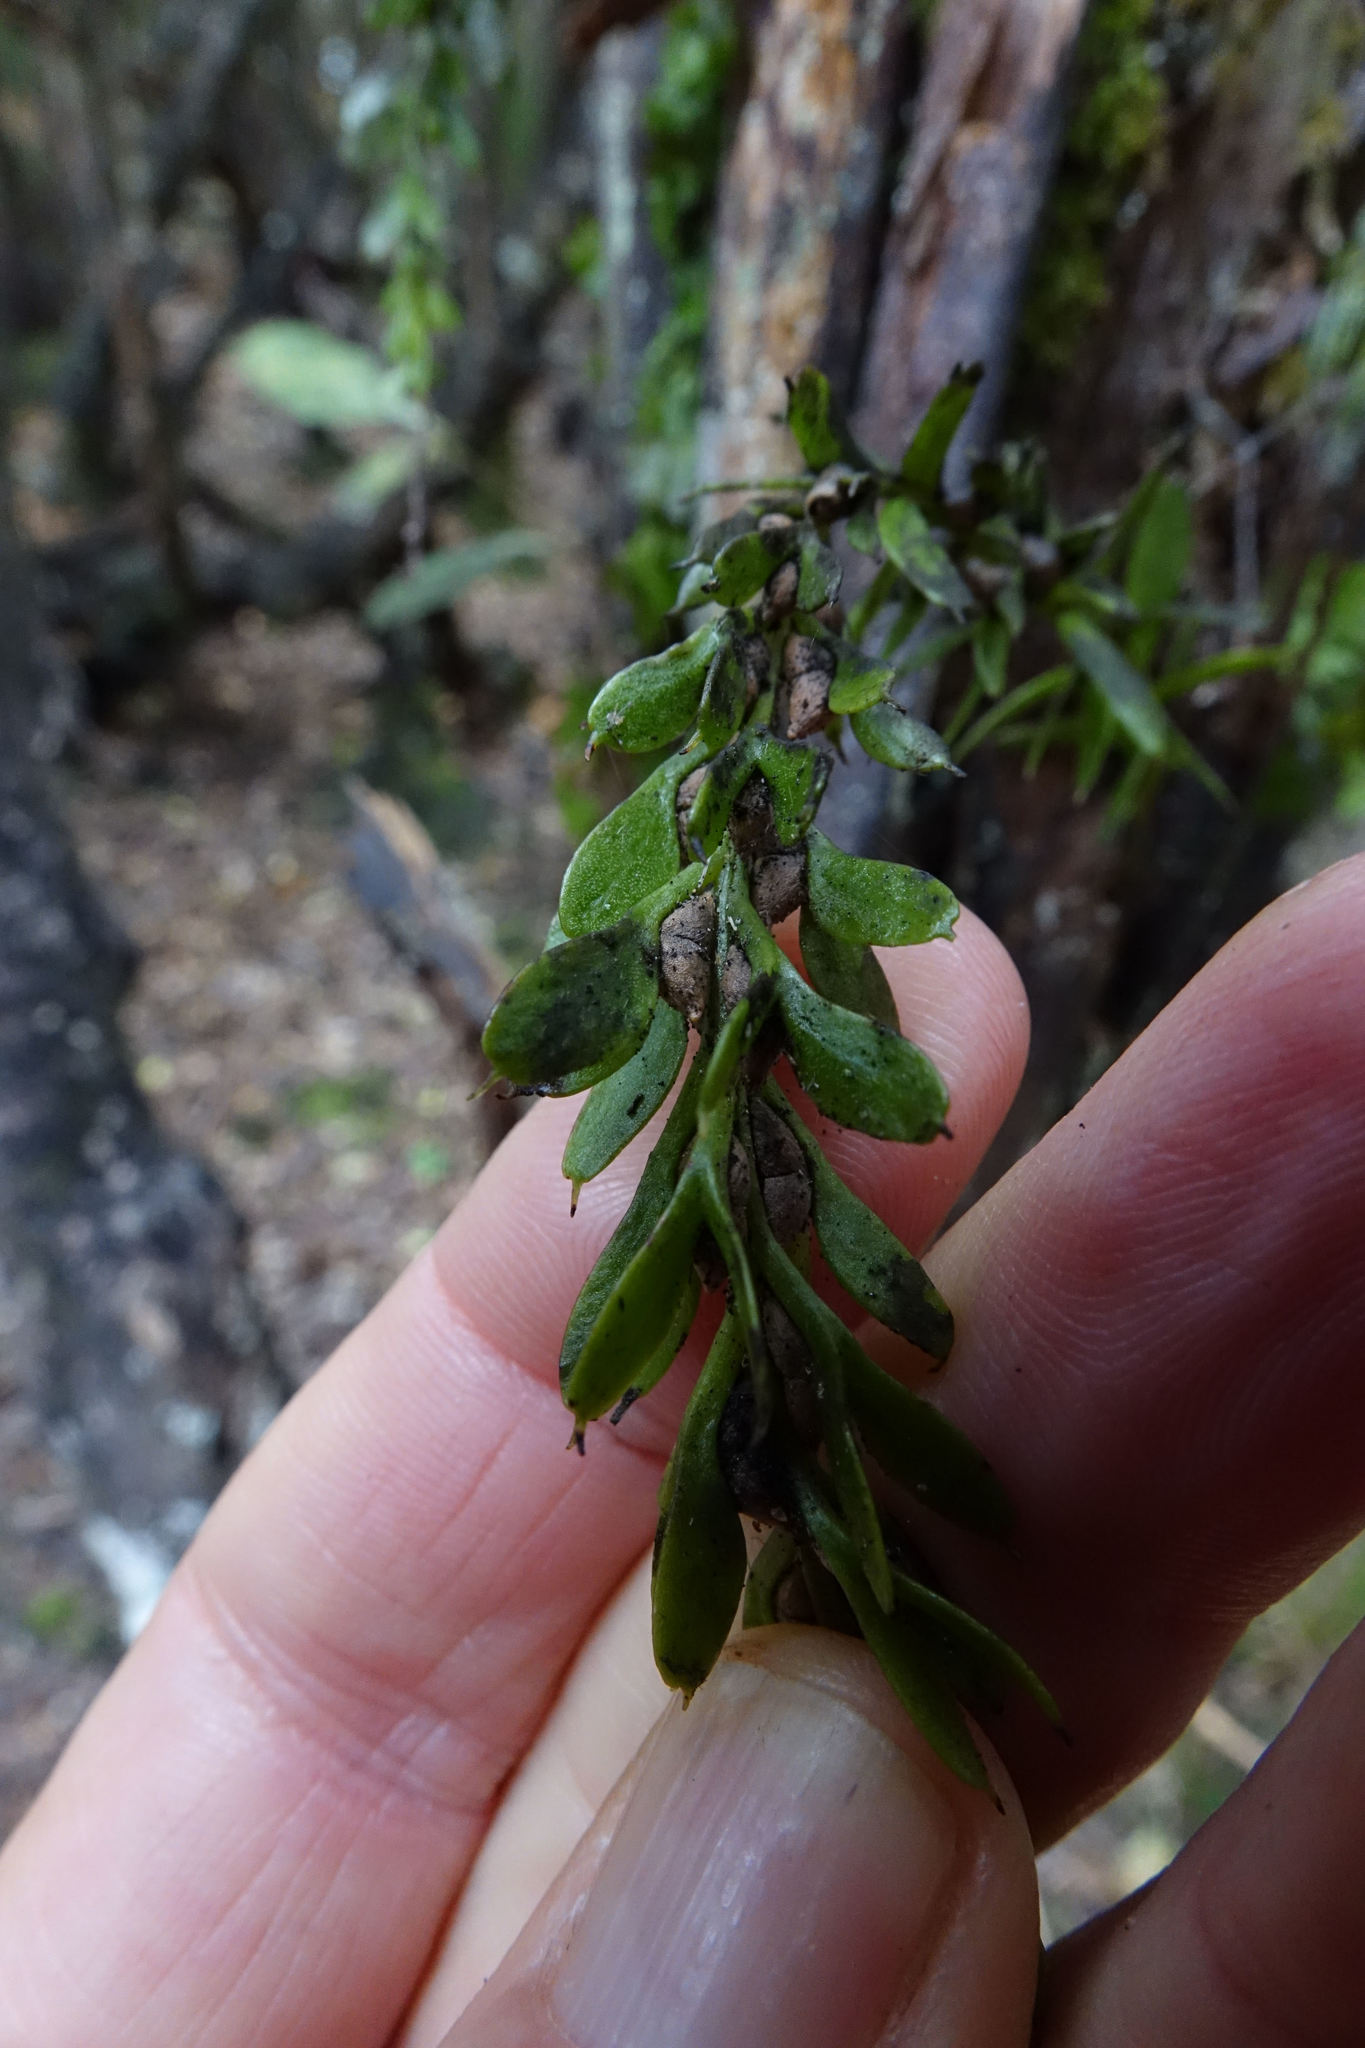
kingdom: Plantae
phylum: Tracheophyta
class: Polypodiopsida
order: Psilotales
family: Psilotaceae
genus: Tmesipteris
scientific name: Tmesipteris tannensis
